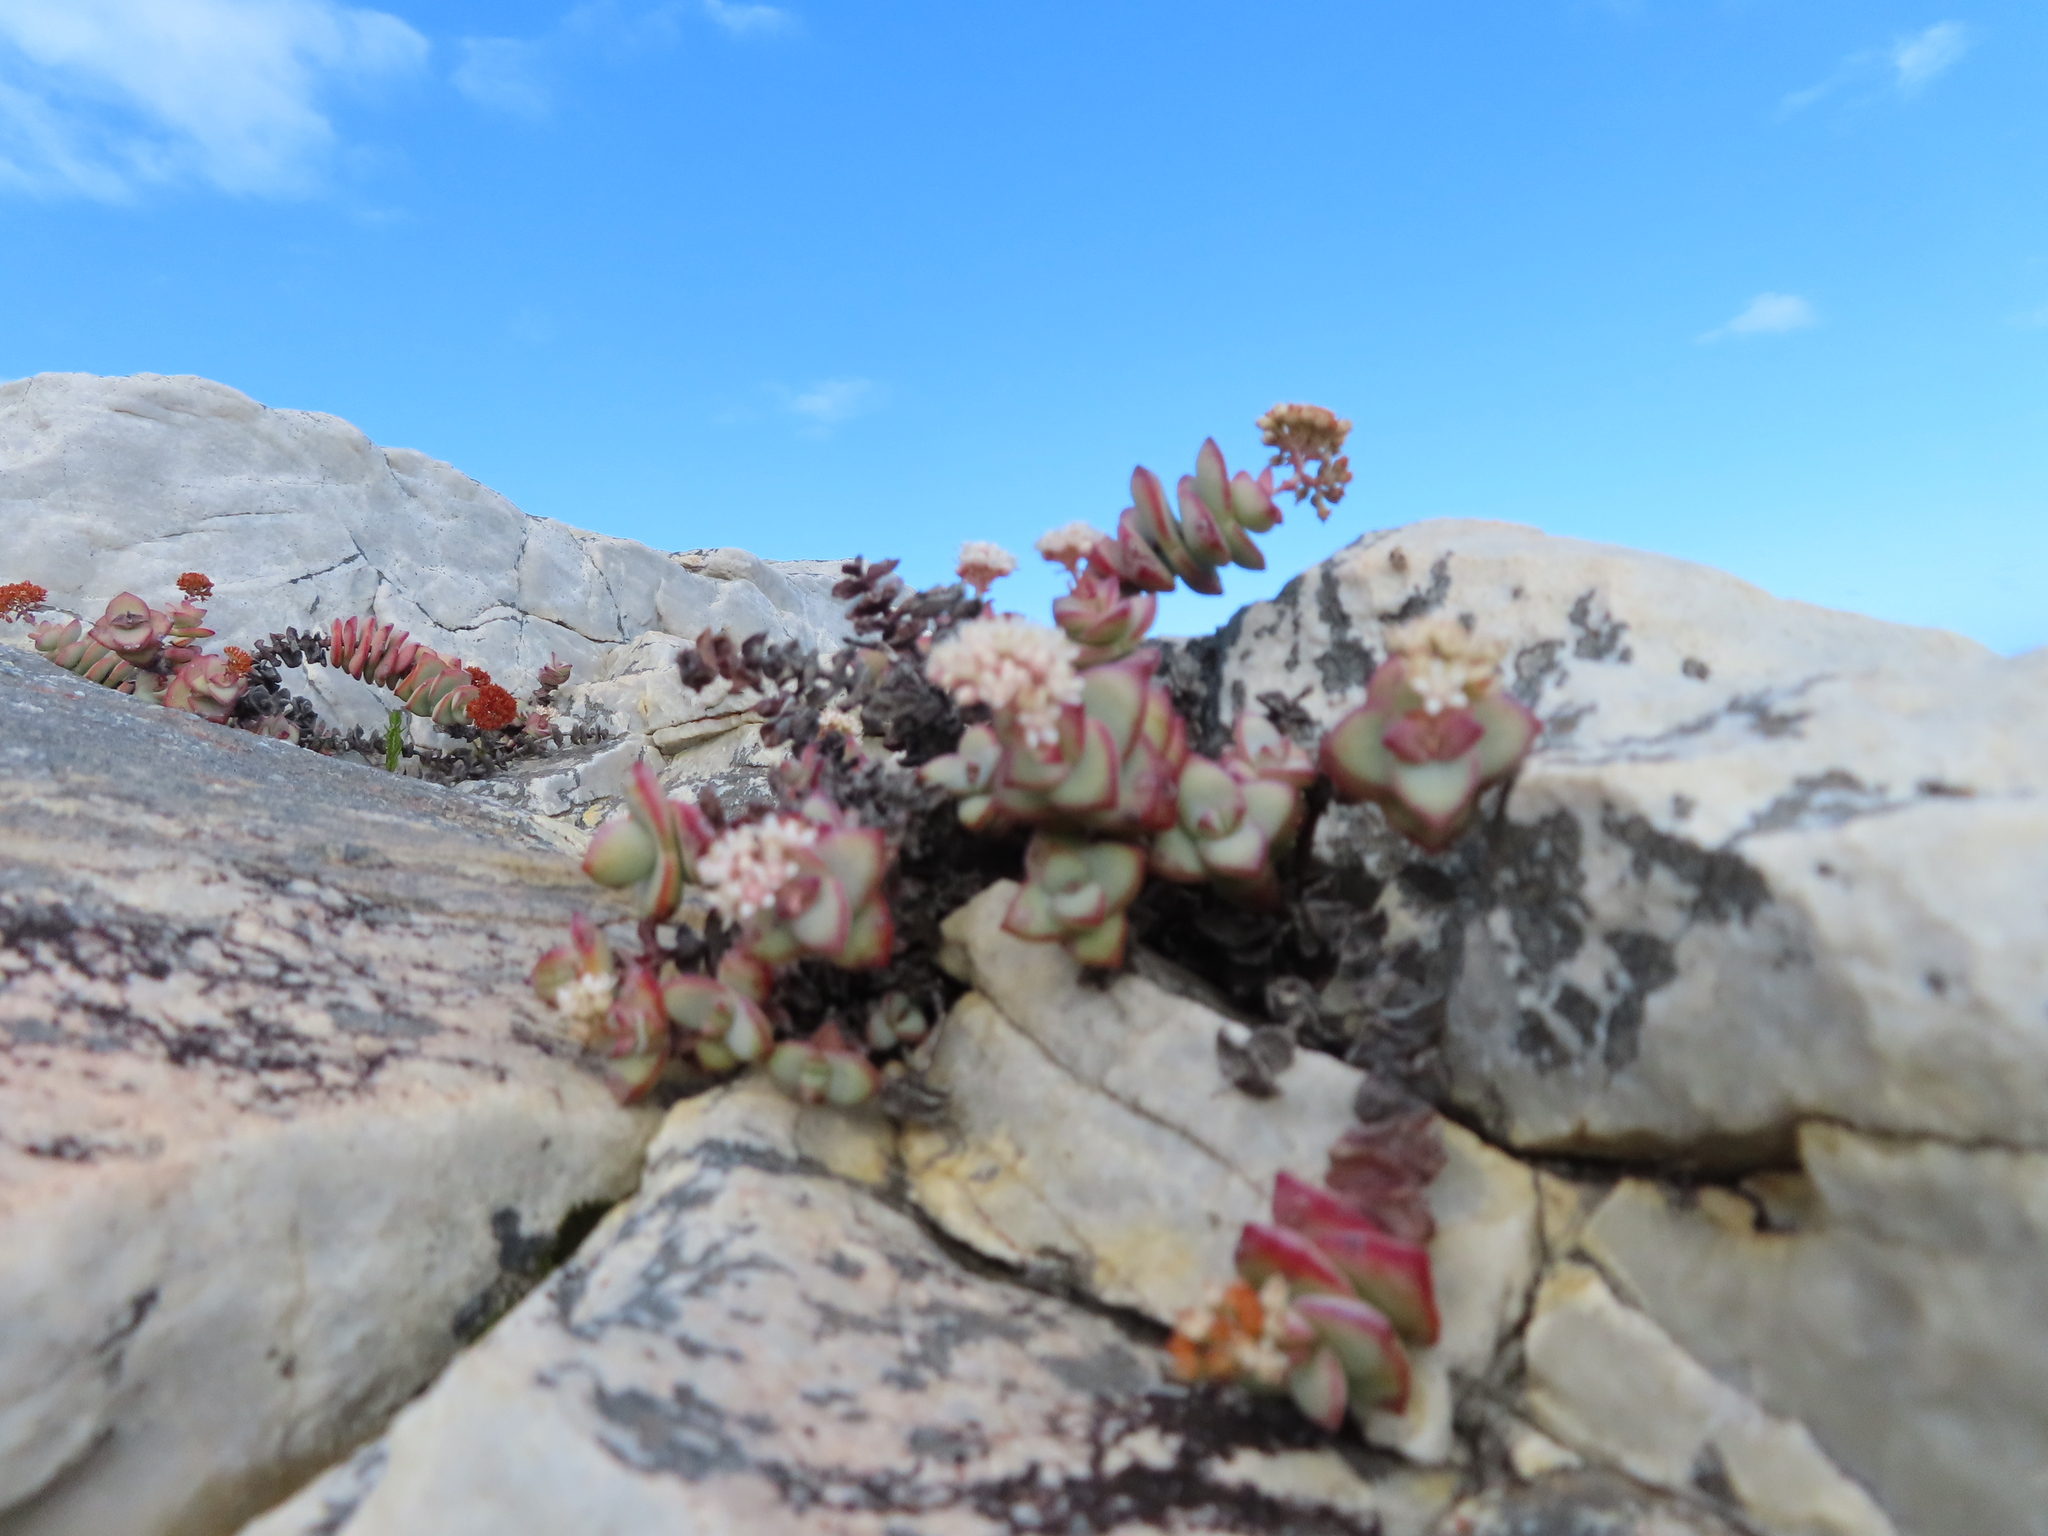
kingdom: Plantae
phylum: Tracheophyta
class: Magnoliopsida
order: Saxifragales
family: Crassulaceae
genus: Crassula
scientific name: Crassula rupestris
